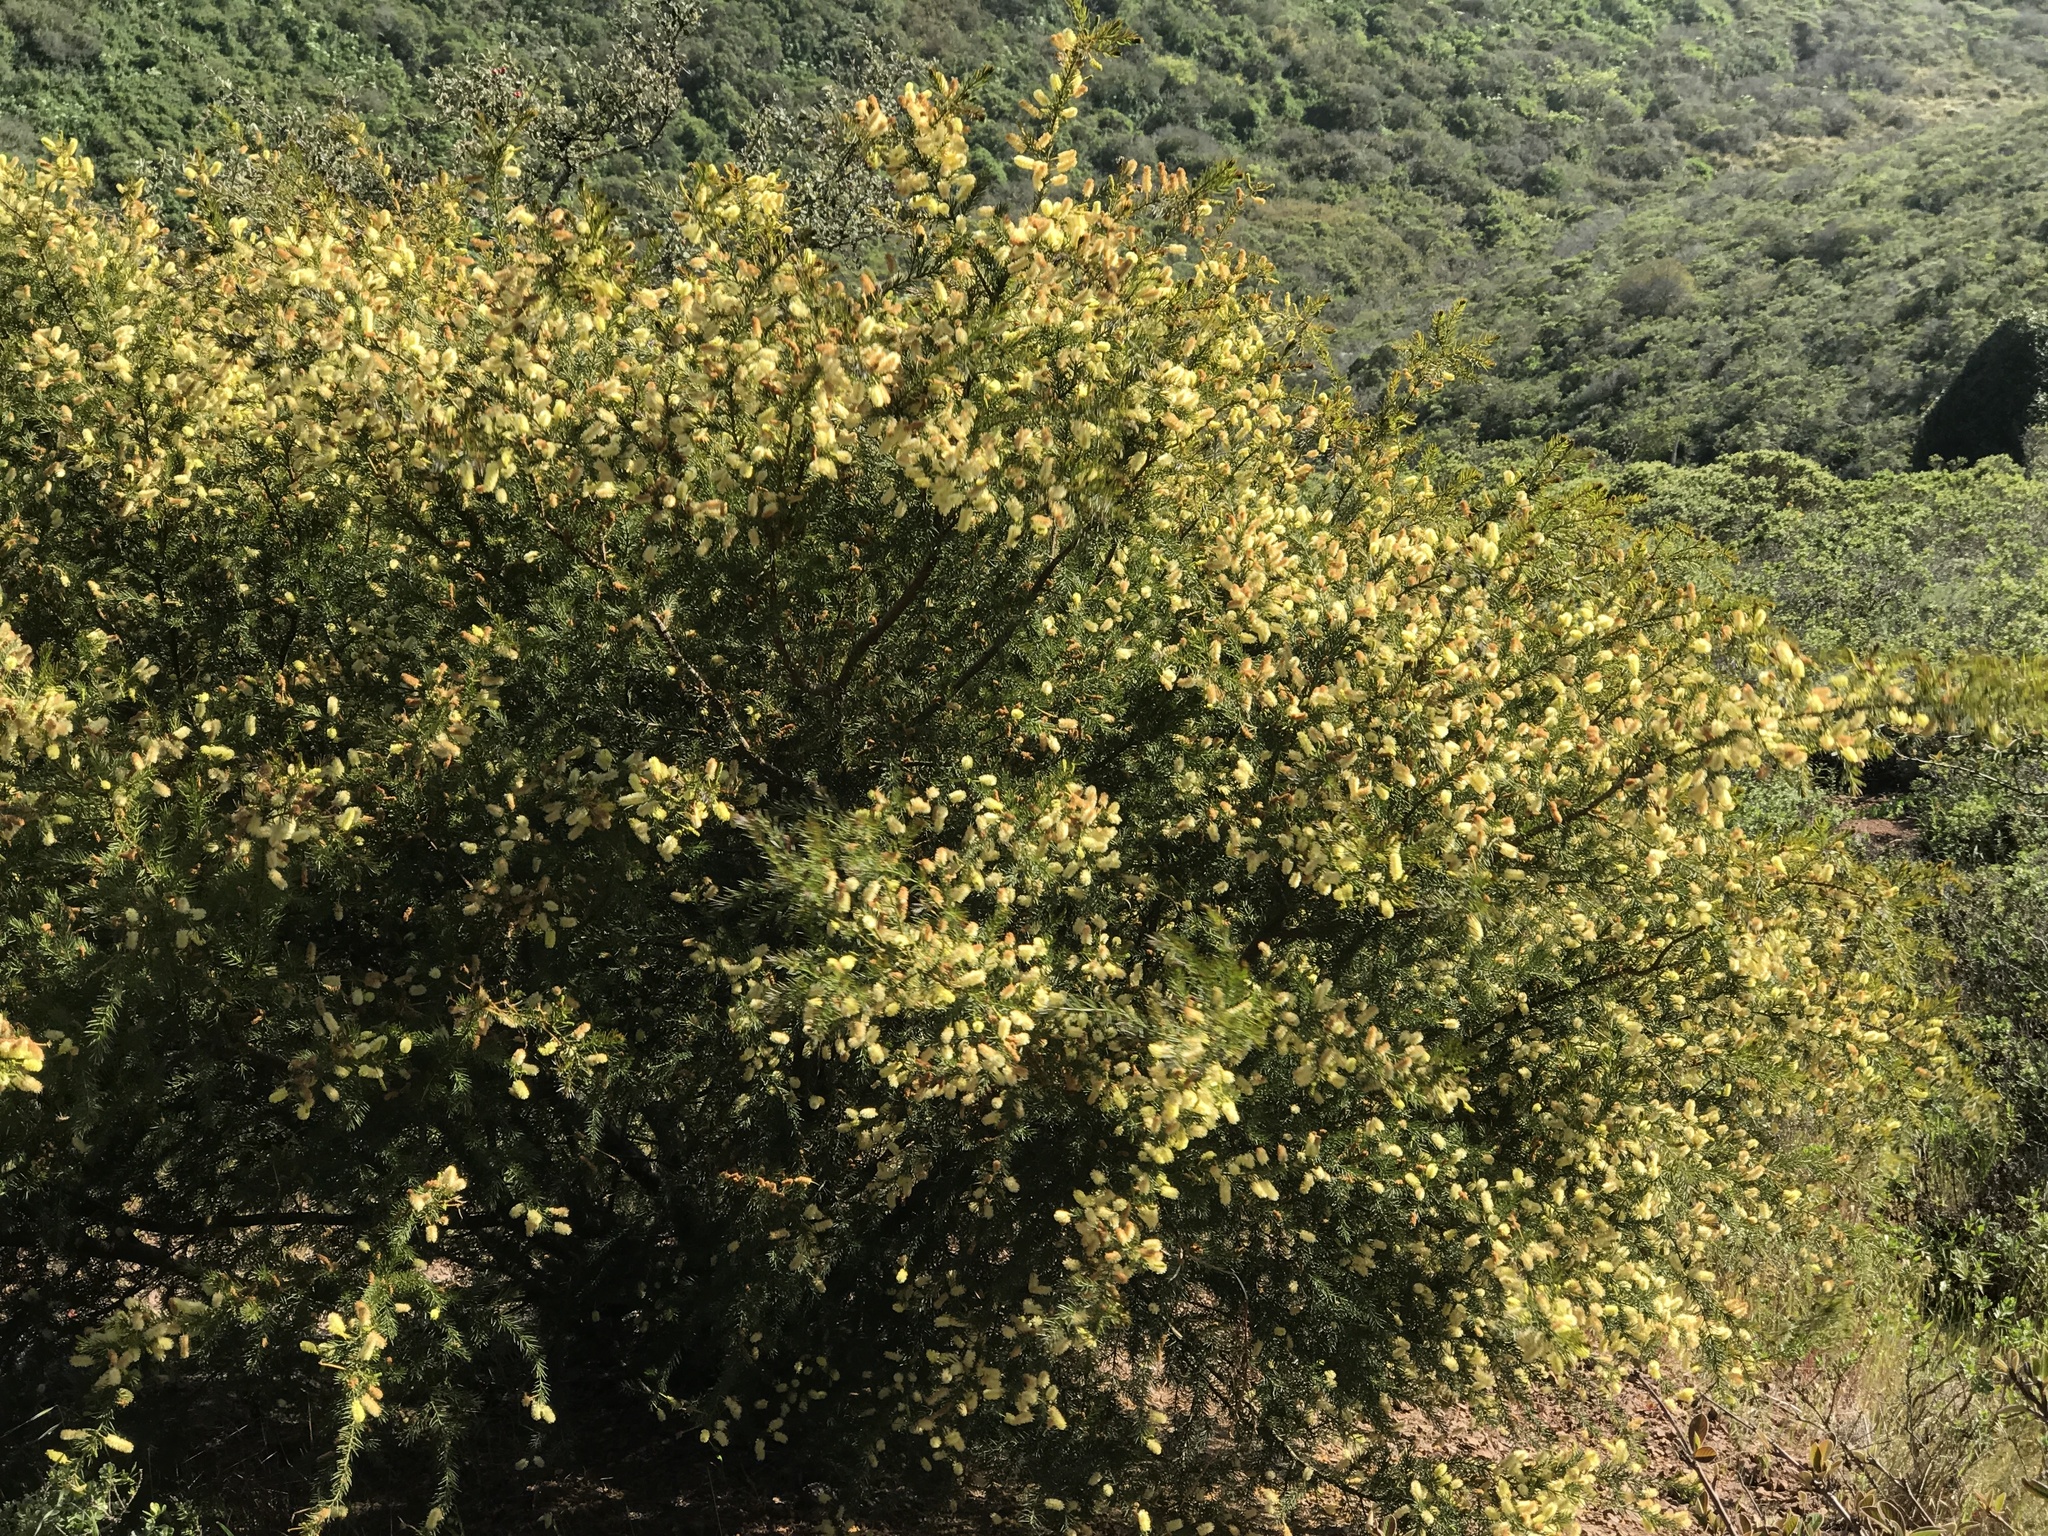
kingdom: Plantae
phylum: Tracheophyta
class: Magnoliopsida
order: Fabales
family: Fabaceae
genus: Acacia
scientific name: Acacia verticillata
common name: Prickly moses
